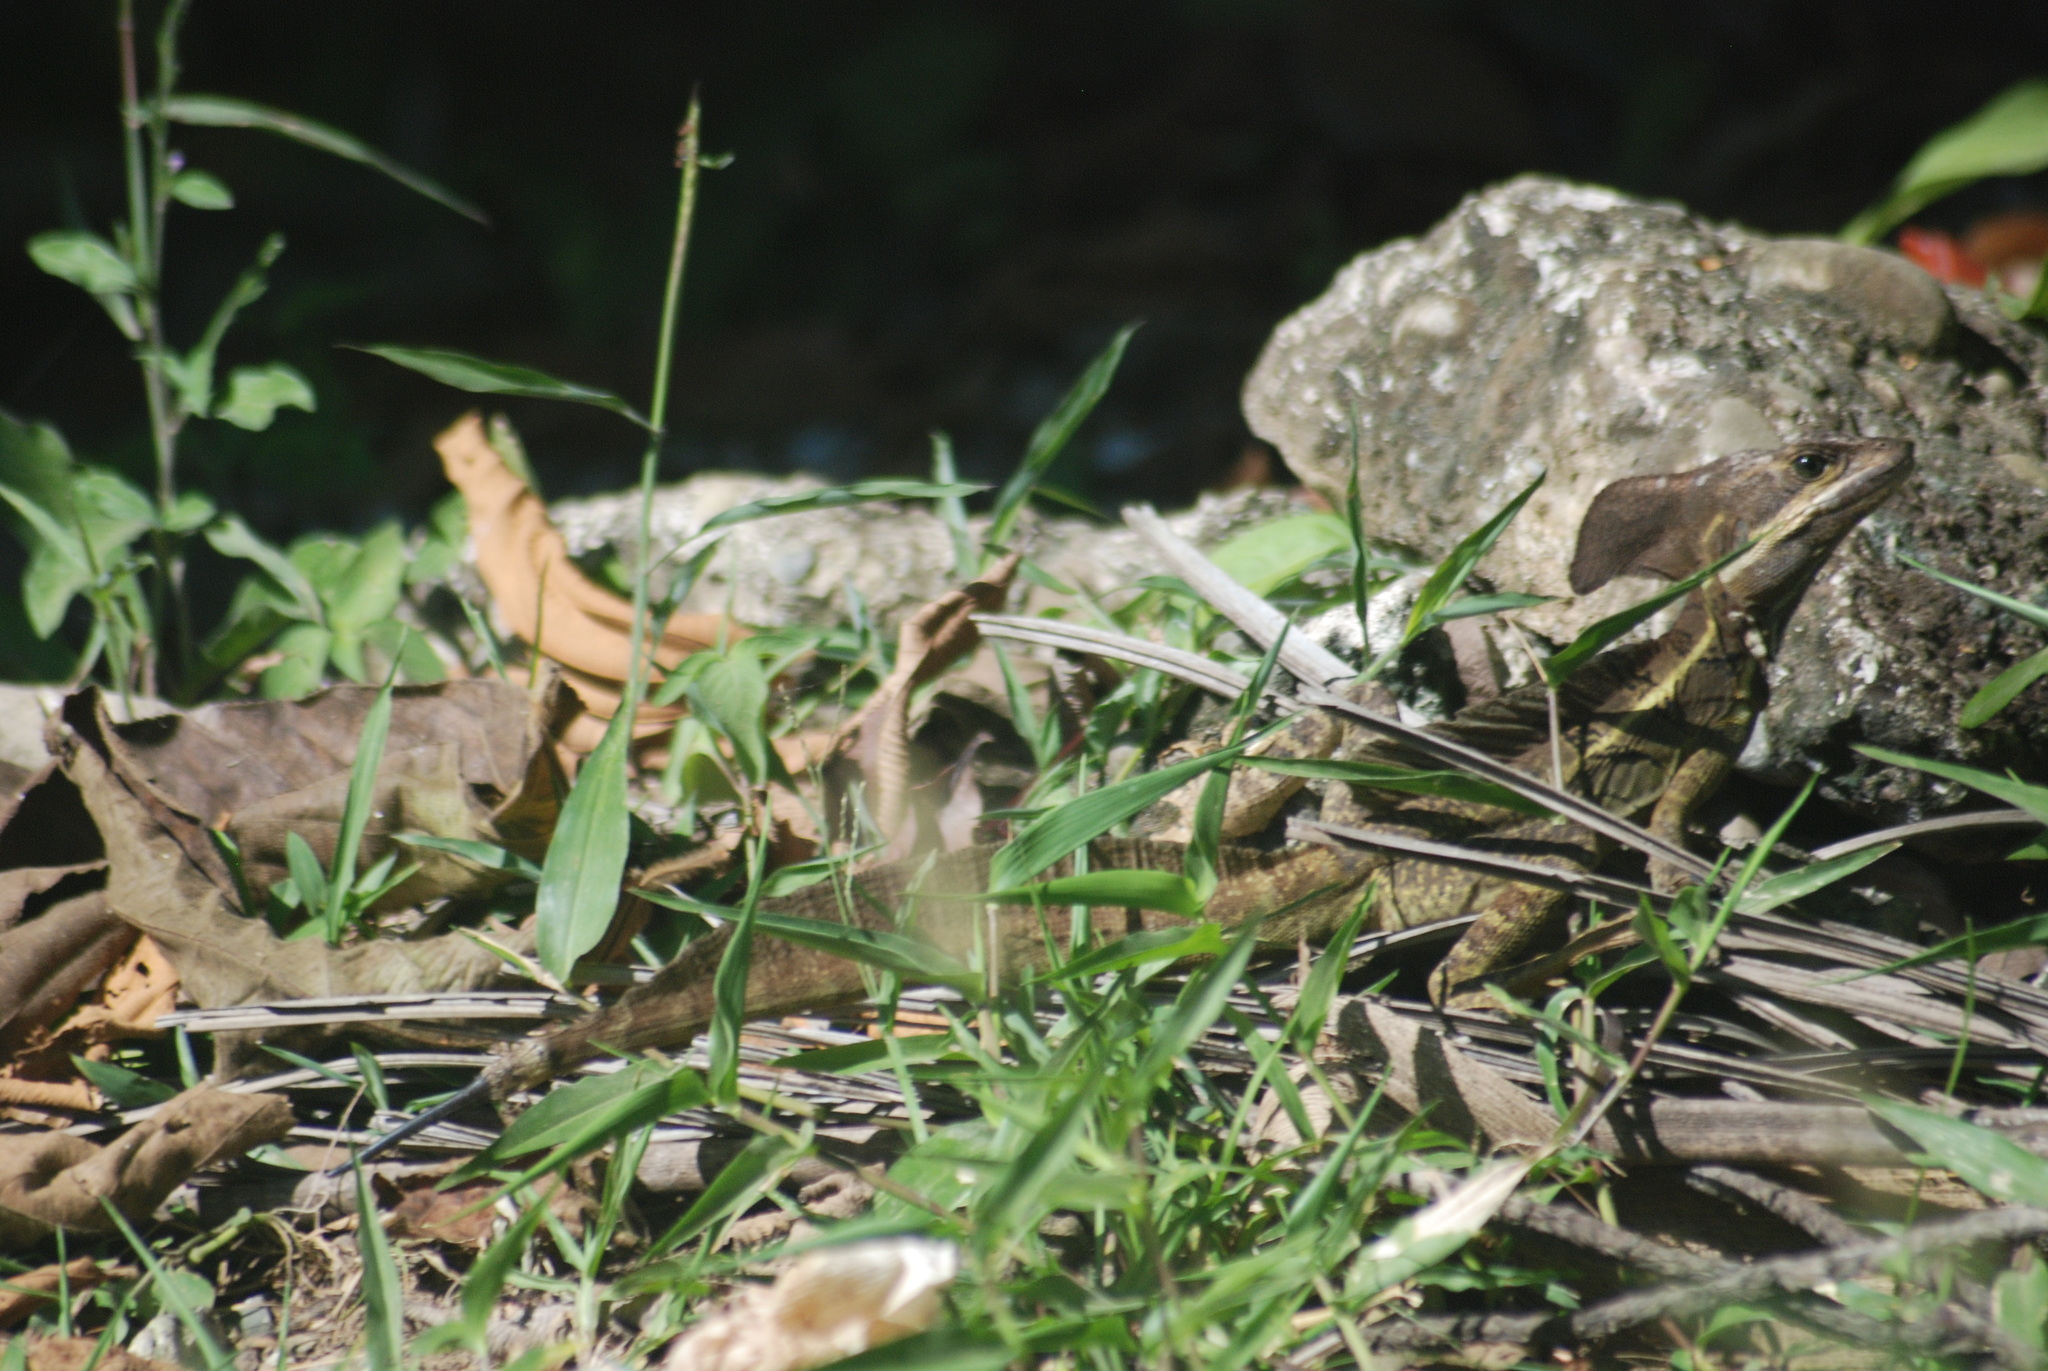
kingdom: Animalia
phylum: Chordata
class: Squamata
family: Corytophanidae
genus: Basiliscus
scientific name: Basiliscus basiliscus
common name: Common basilisk
